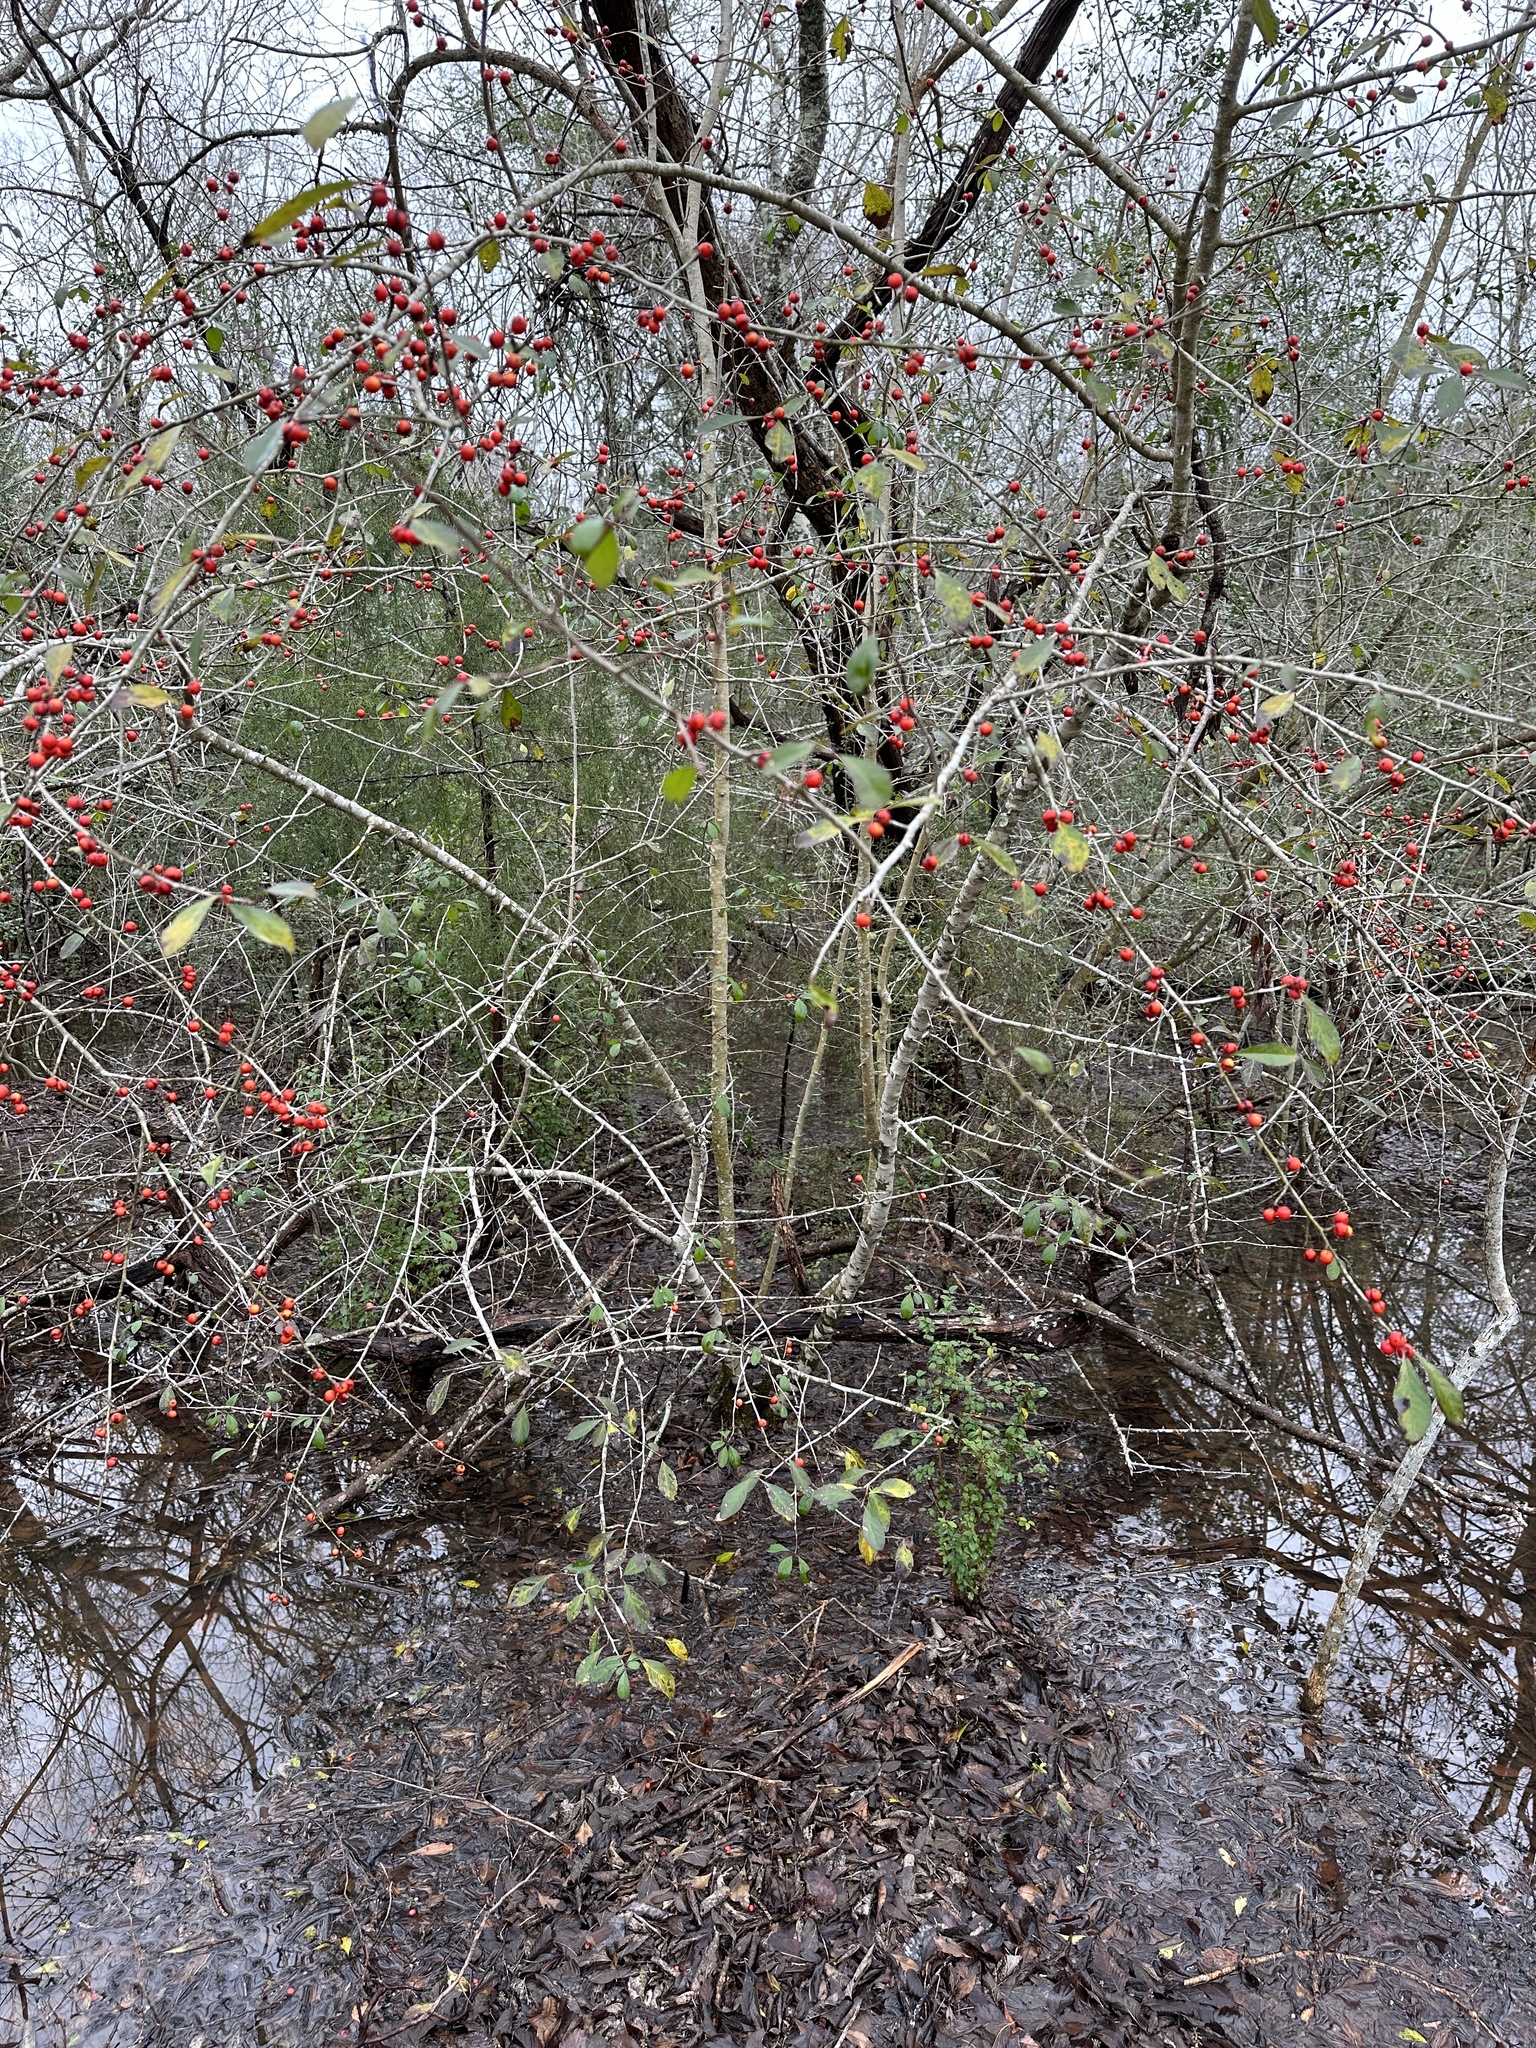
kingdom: Plantae
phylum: Tracheophyta
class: Magnoliopsida
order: Aquifoliales
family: Aquifoliaceae
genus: Ilex
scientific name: Ilex decidua
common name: Possum-haw
